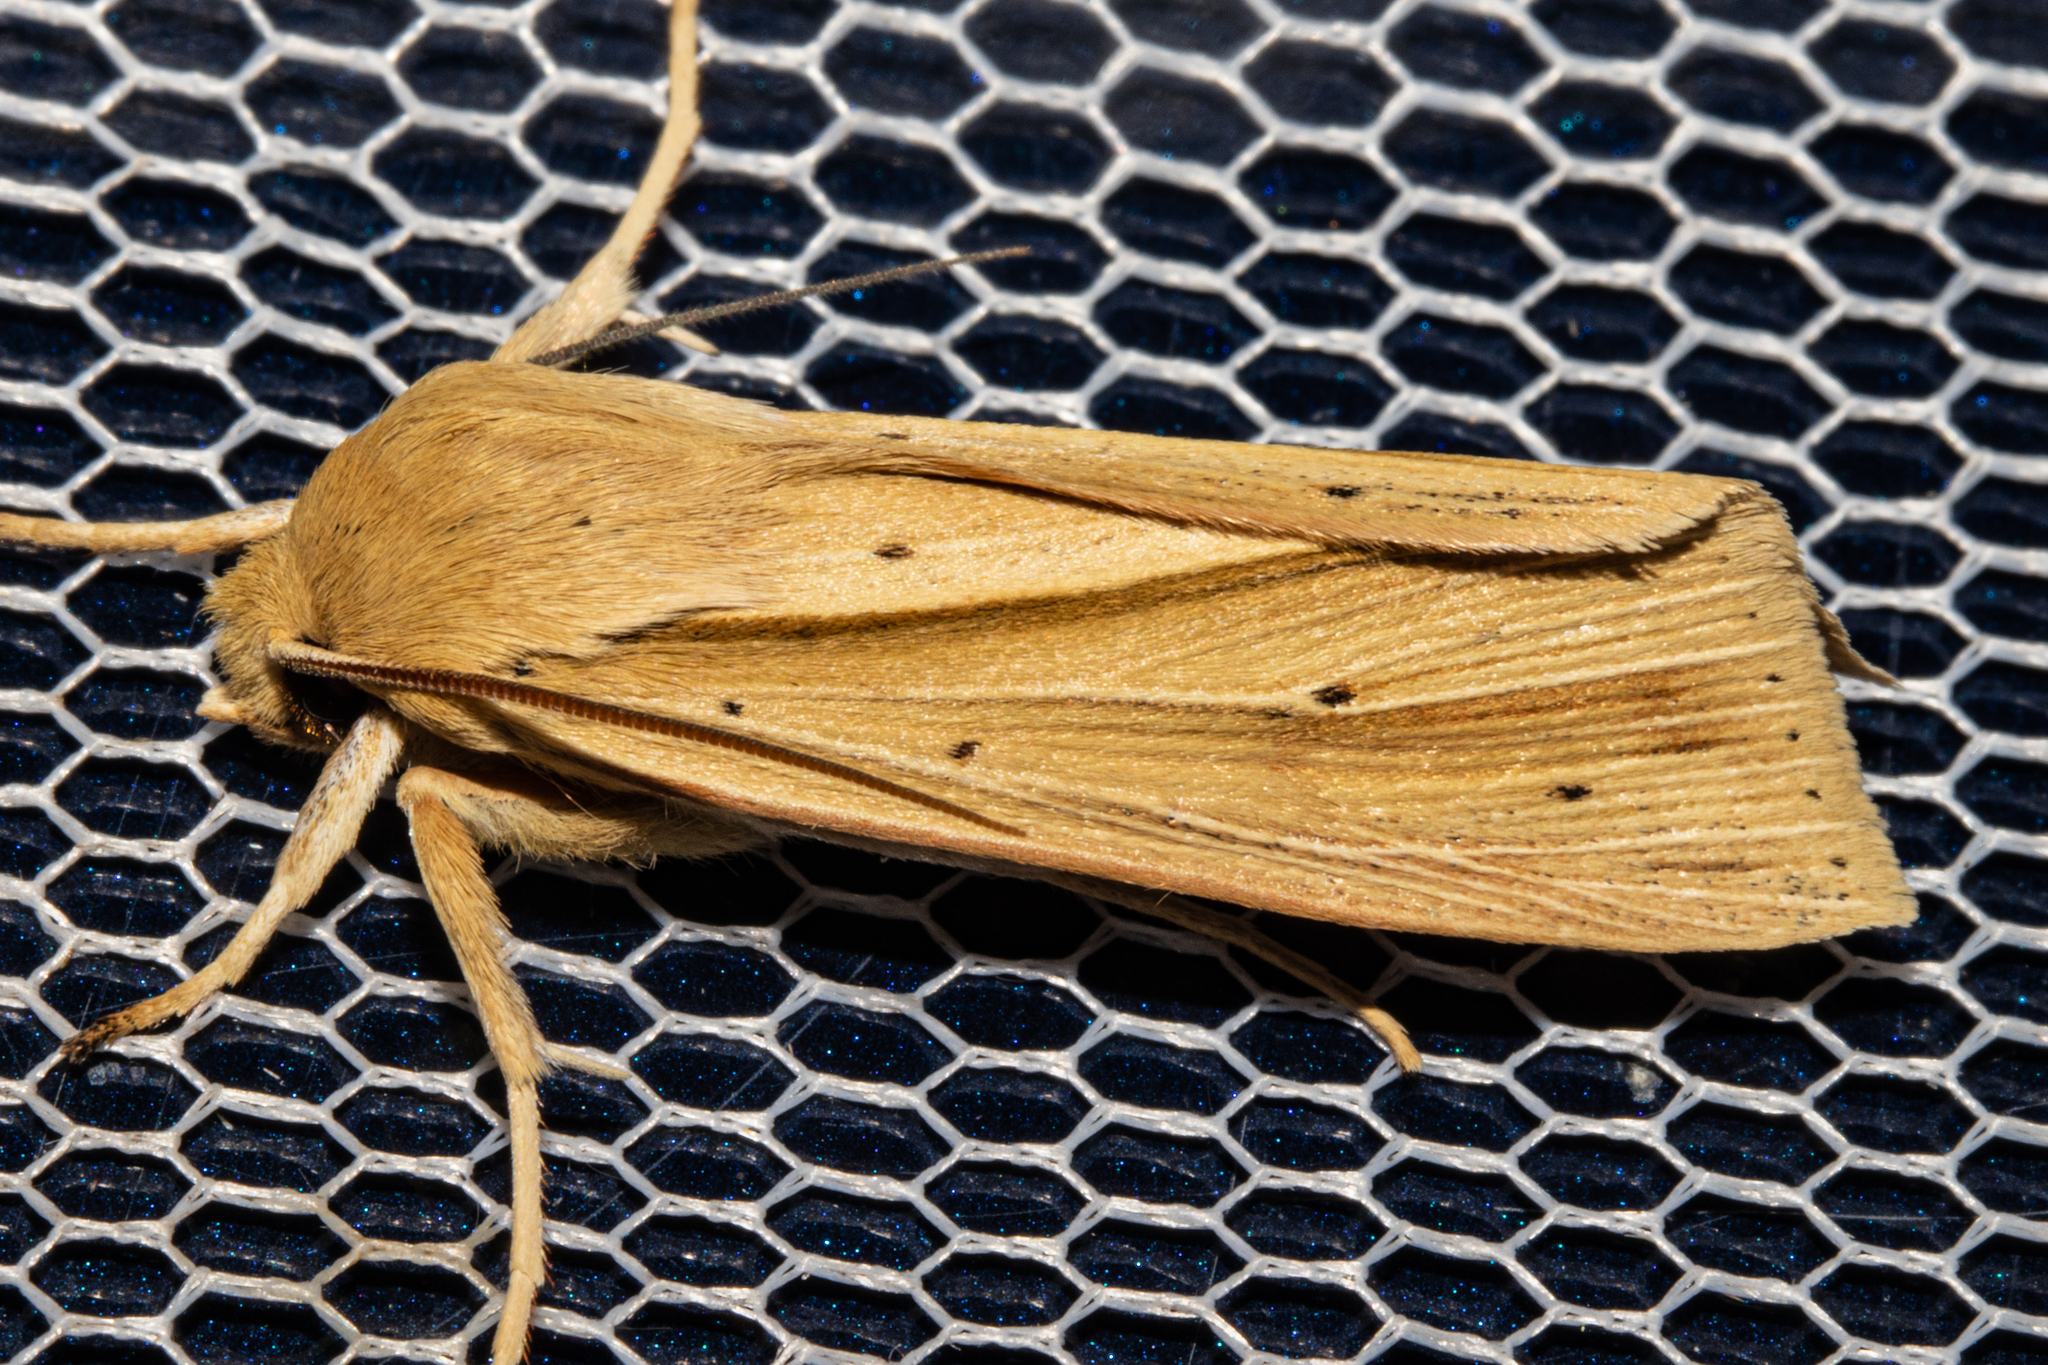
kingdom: Animalia
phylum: Arthropoda
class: Insecta
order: Lepidoptera
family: Noctuidae
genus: Ichneutica
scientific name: Ichneutica sulcana
